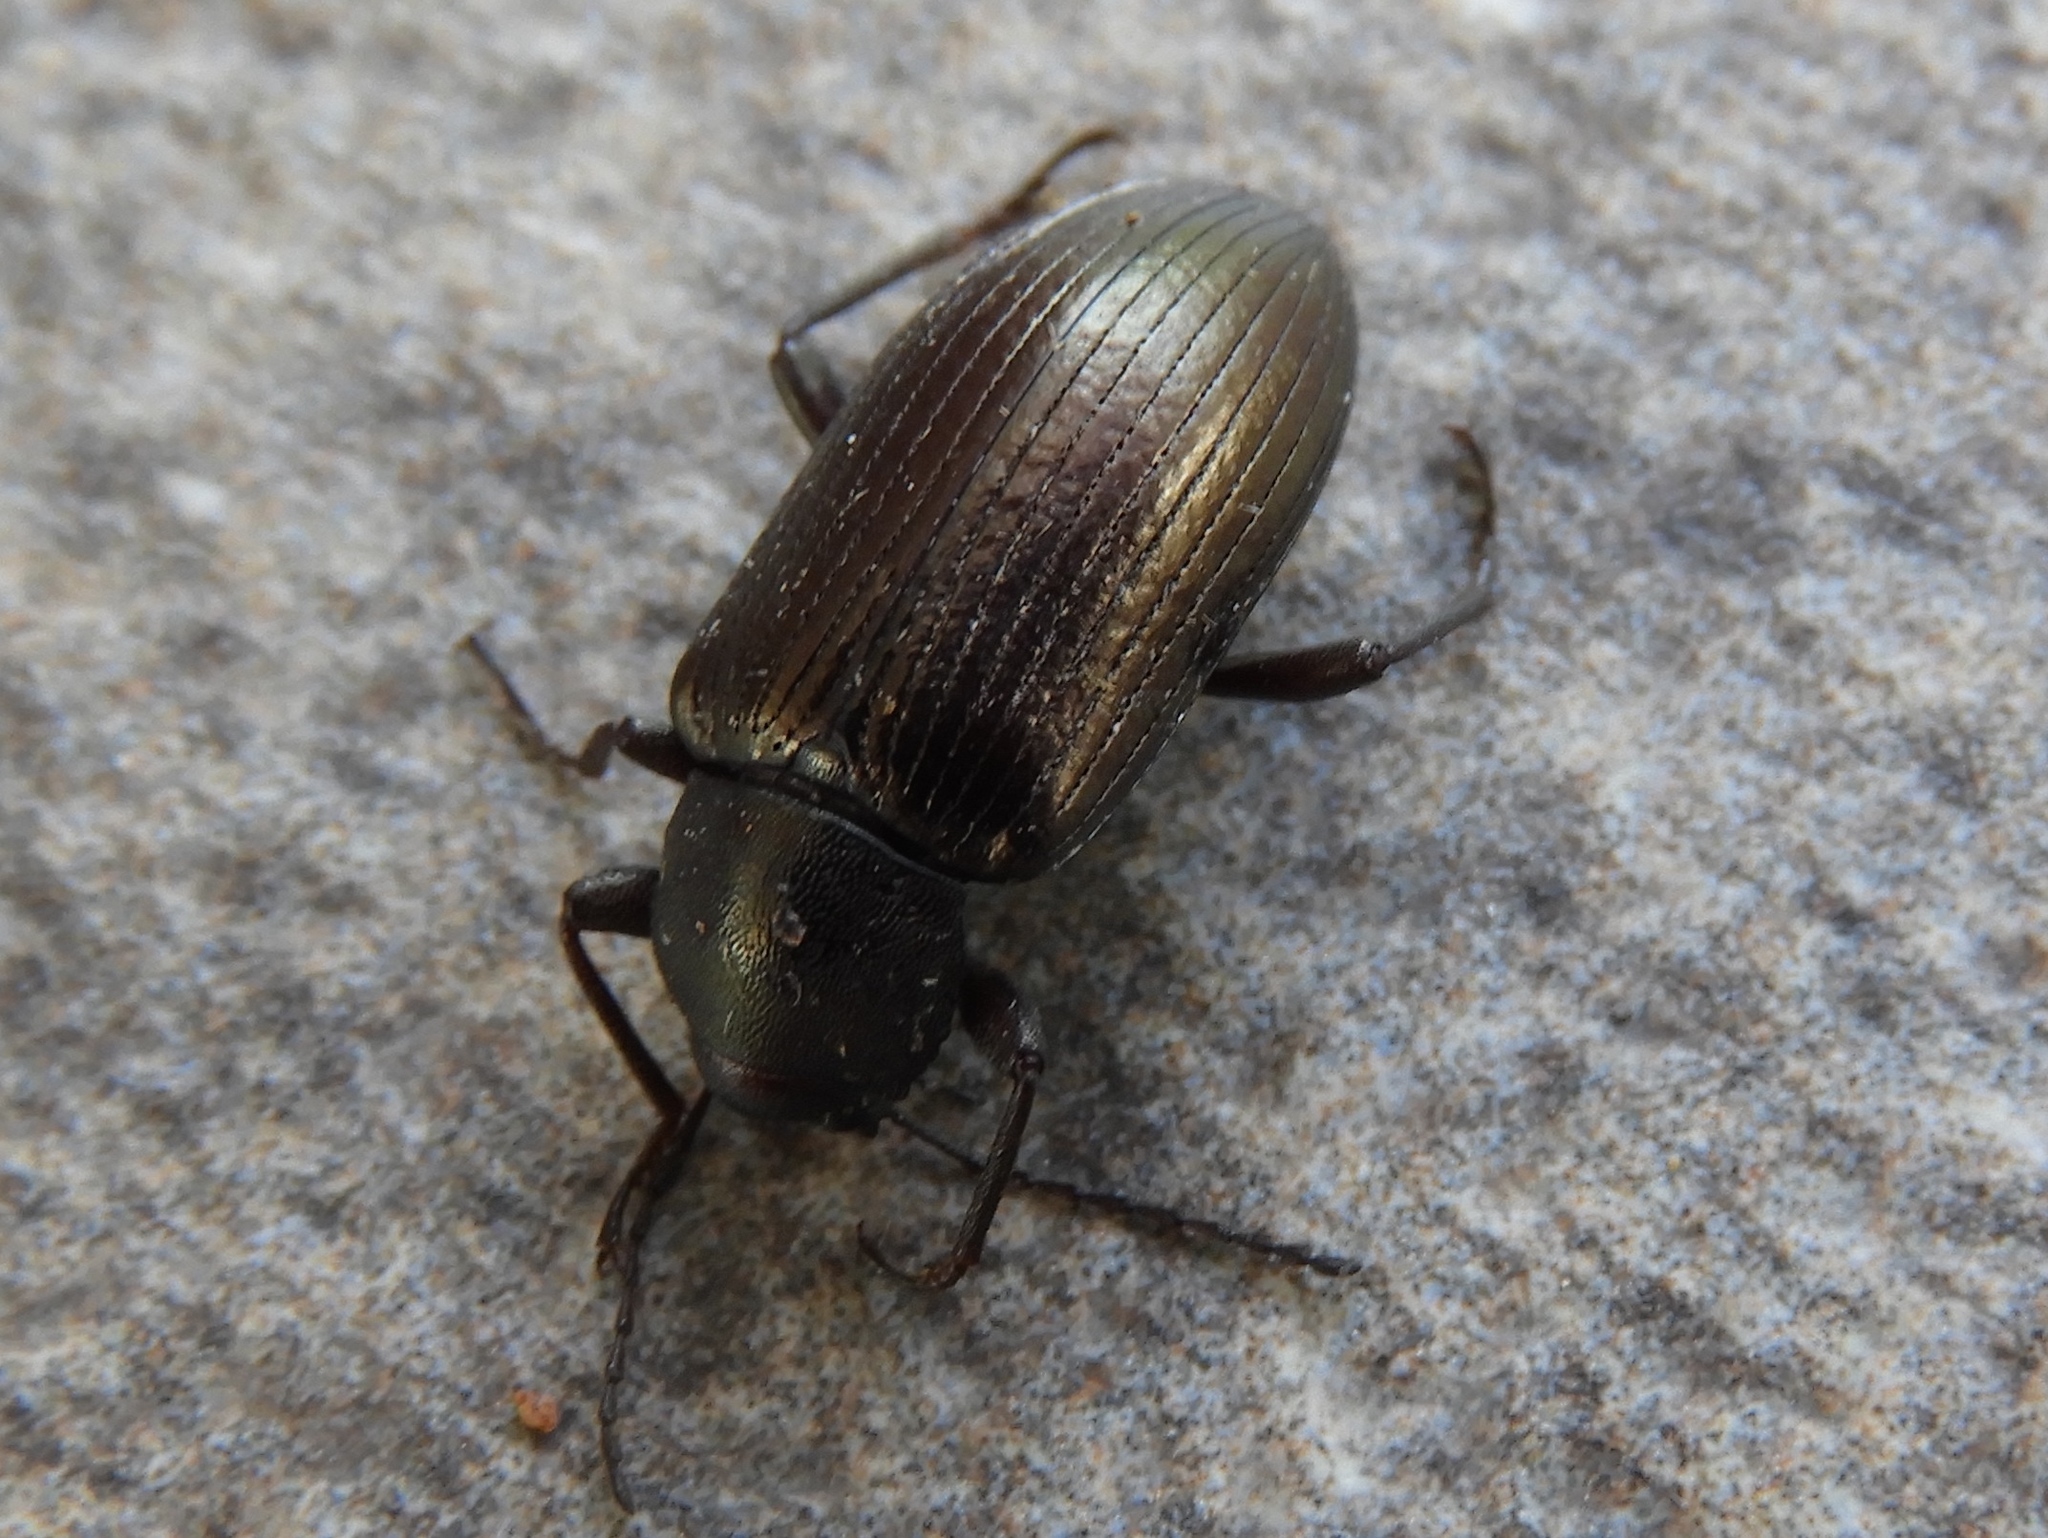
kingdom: Animalia
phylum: Arthropoda
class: Insecta
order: Coleoptera
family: Helopii
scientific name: Helopii
